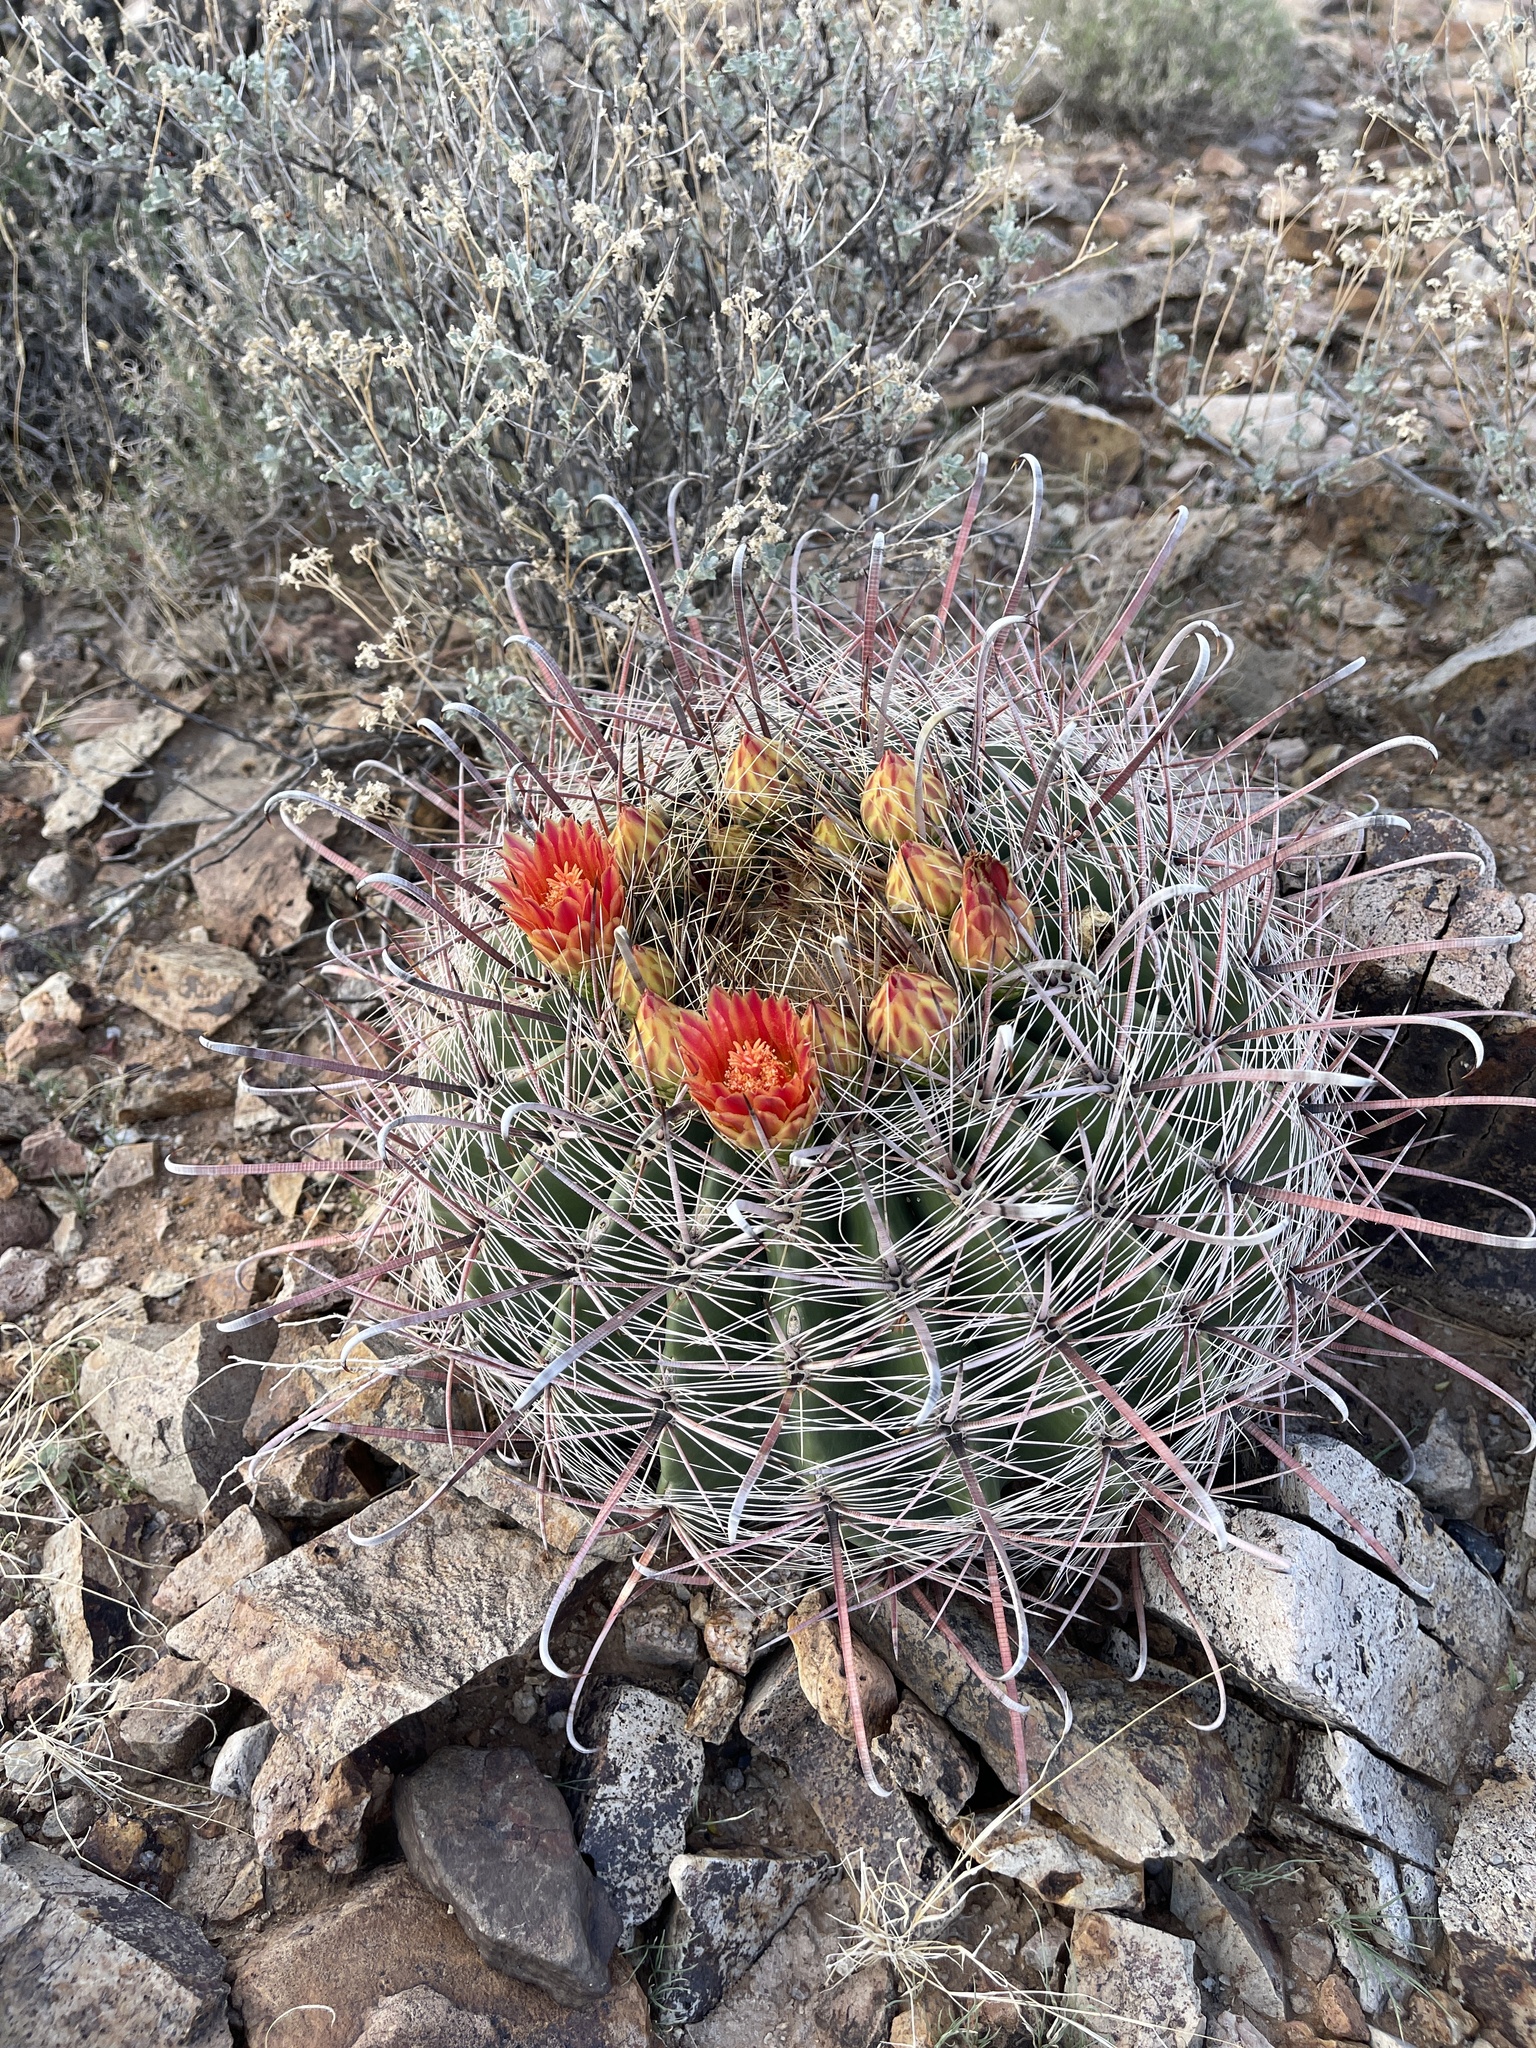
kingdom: Plantae
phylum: Tracheophyta
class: Magnoliopsida
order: Caryophyllales
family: Cactaceae
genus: Ferocactus
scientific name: Ferocactus wislizeni
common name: Candy barrel cactus
